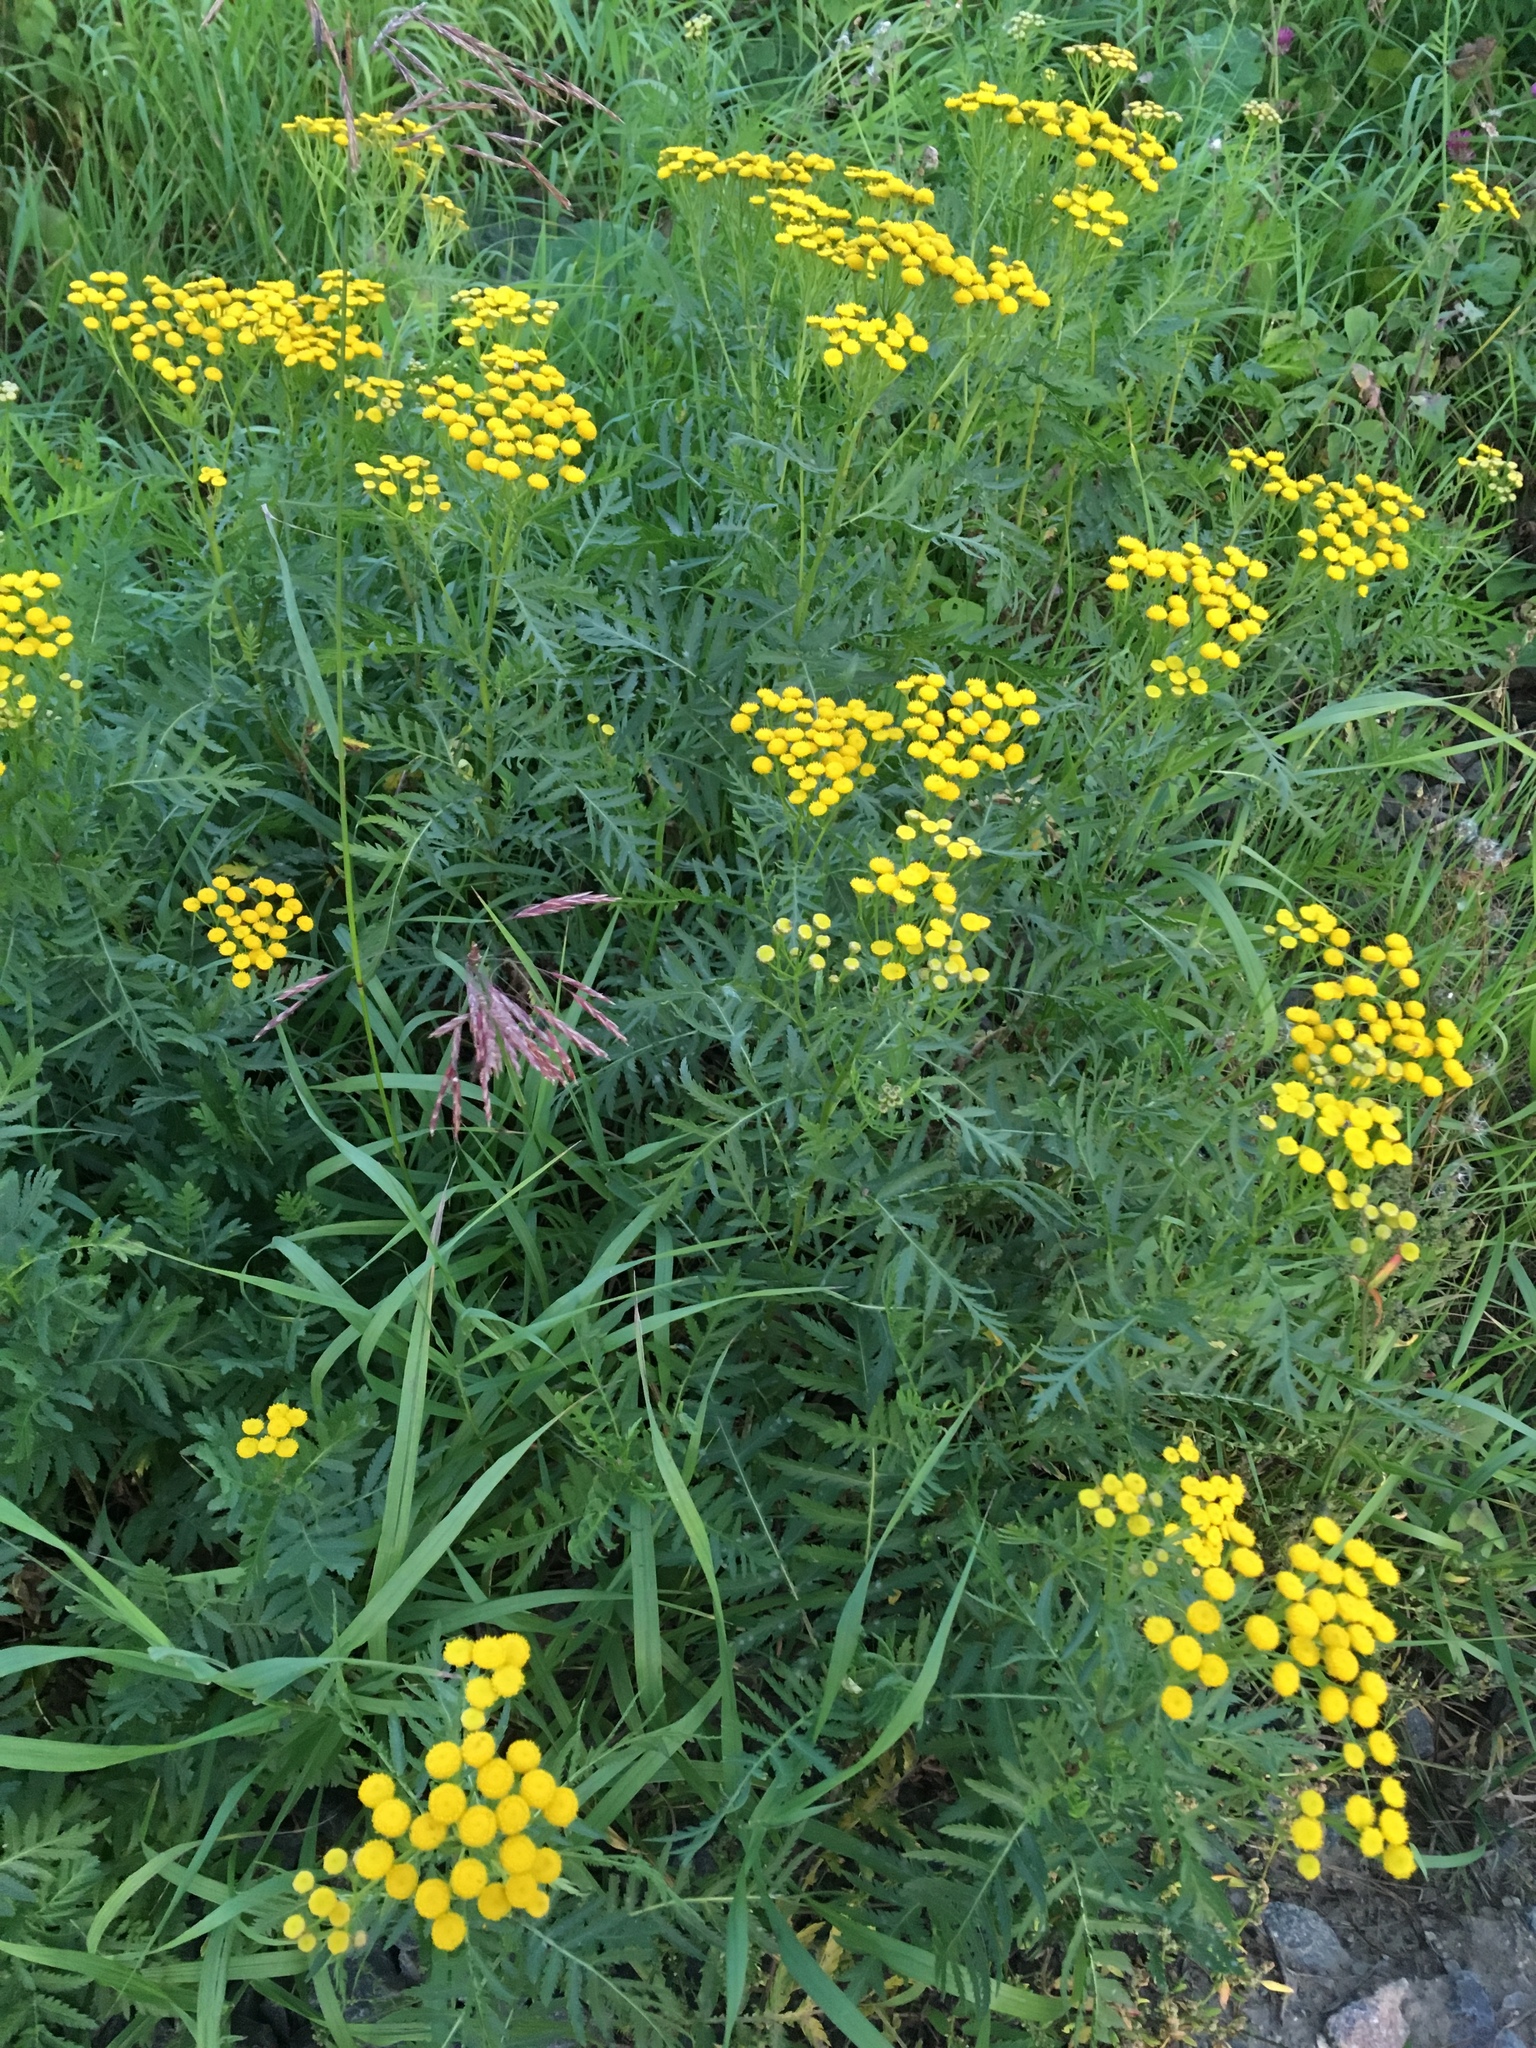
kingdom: Plantae
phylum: Tracheophyta
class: Magnoliopsida
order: Asterales
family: Asteraceae
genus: Tanacetum
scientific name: Tanacetum vulgare
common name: Common tansy
